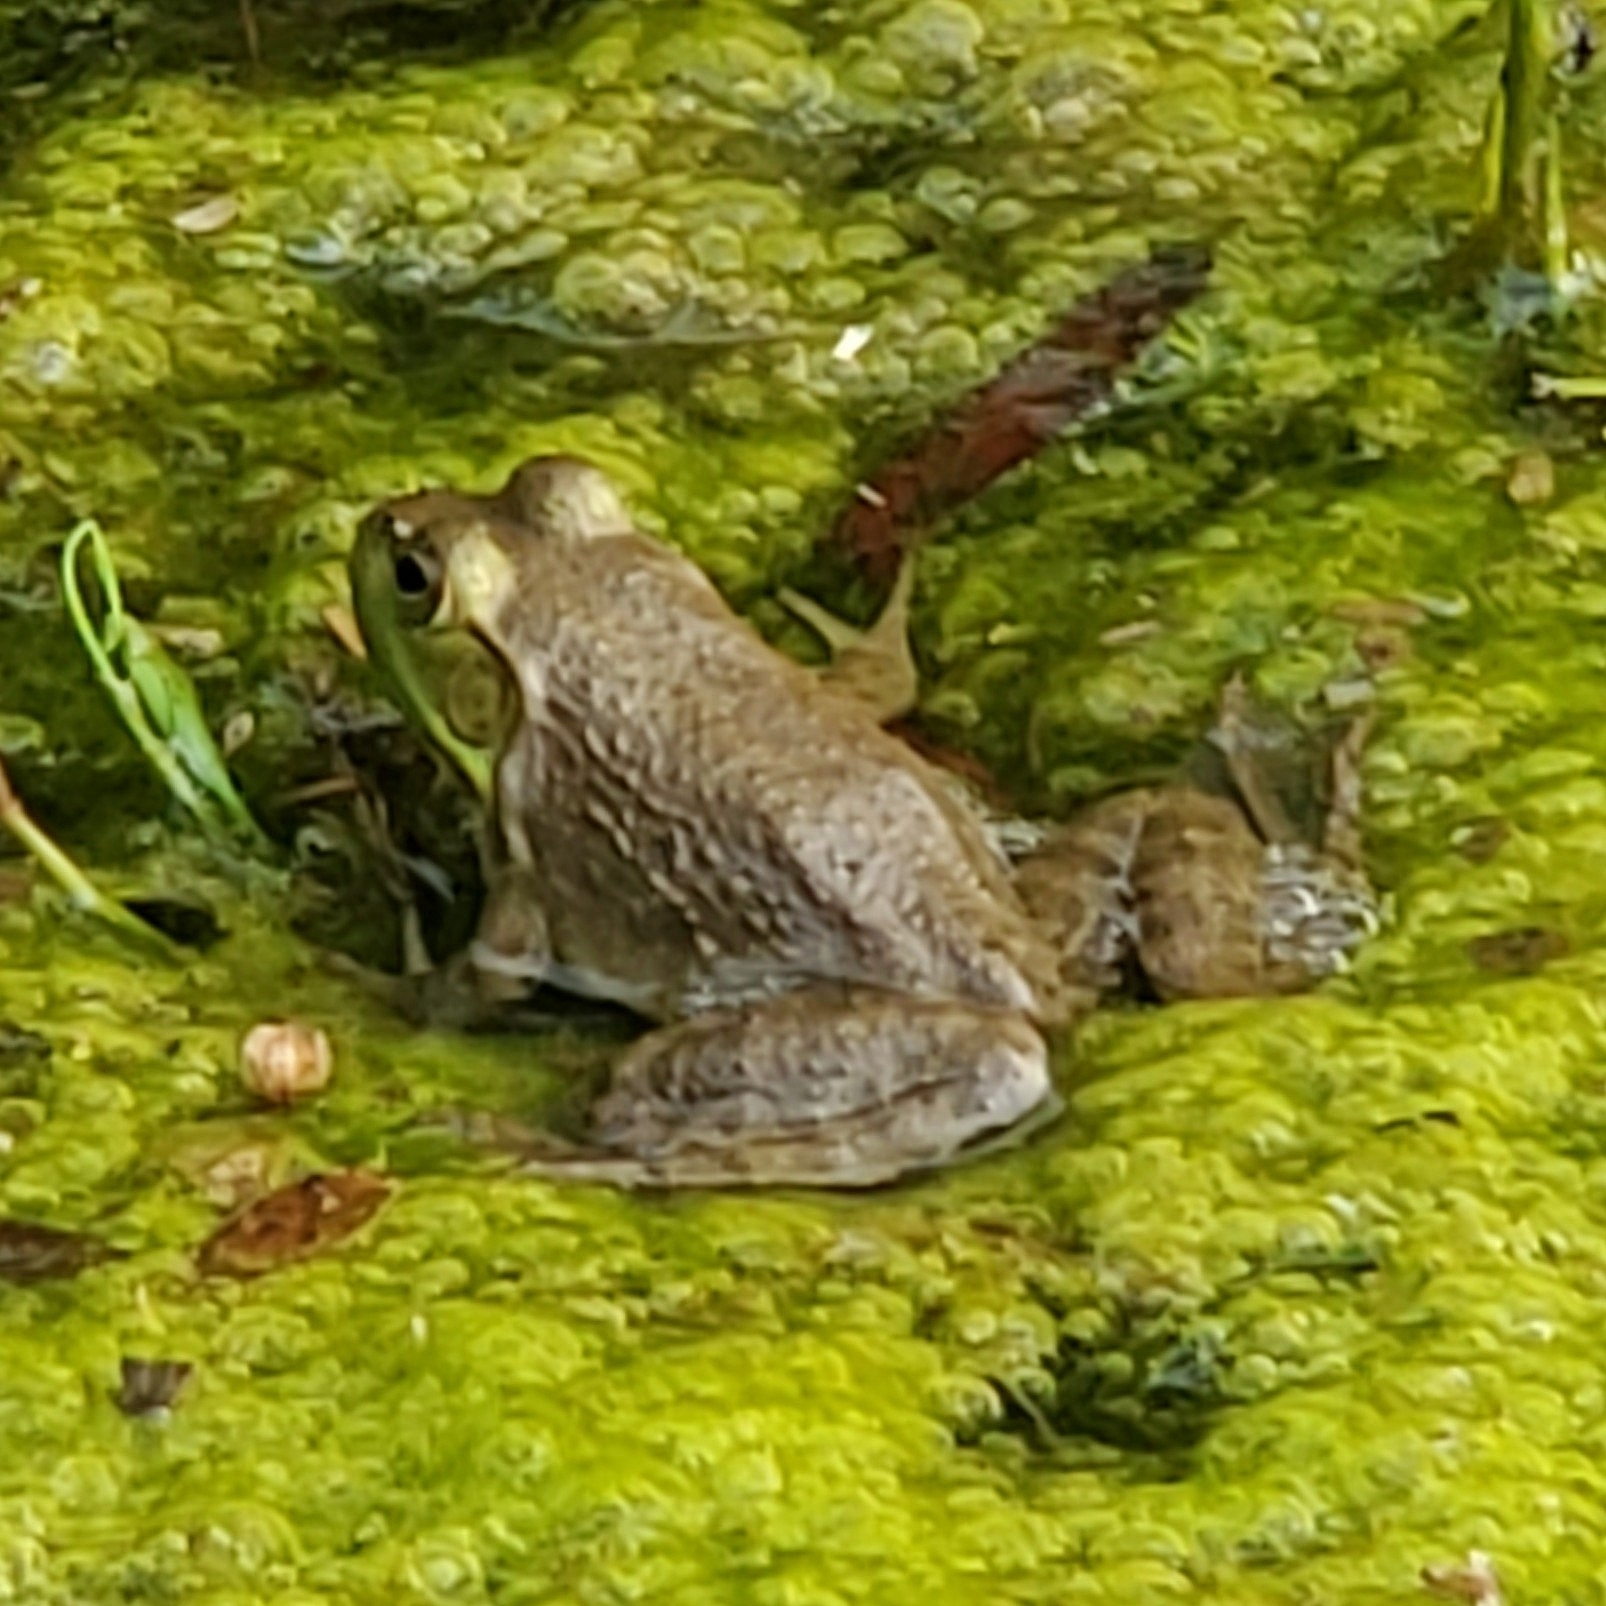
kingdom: Animalia
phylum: Chordata
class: Amphibia
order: Anura
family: Ranidae
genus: Lithobates
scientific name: Lithobates catesbeianus
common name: American bullfrog
